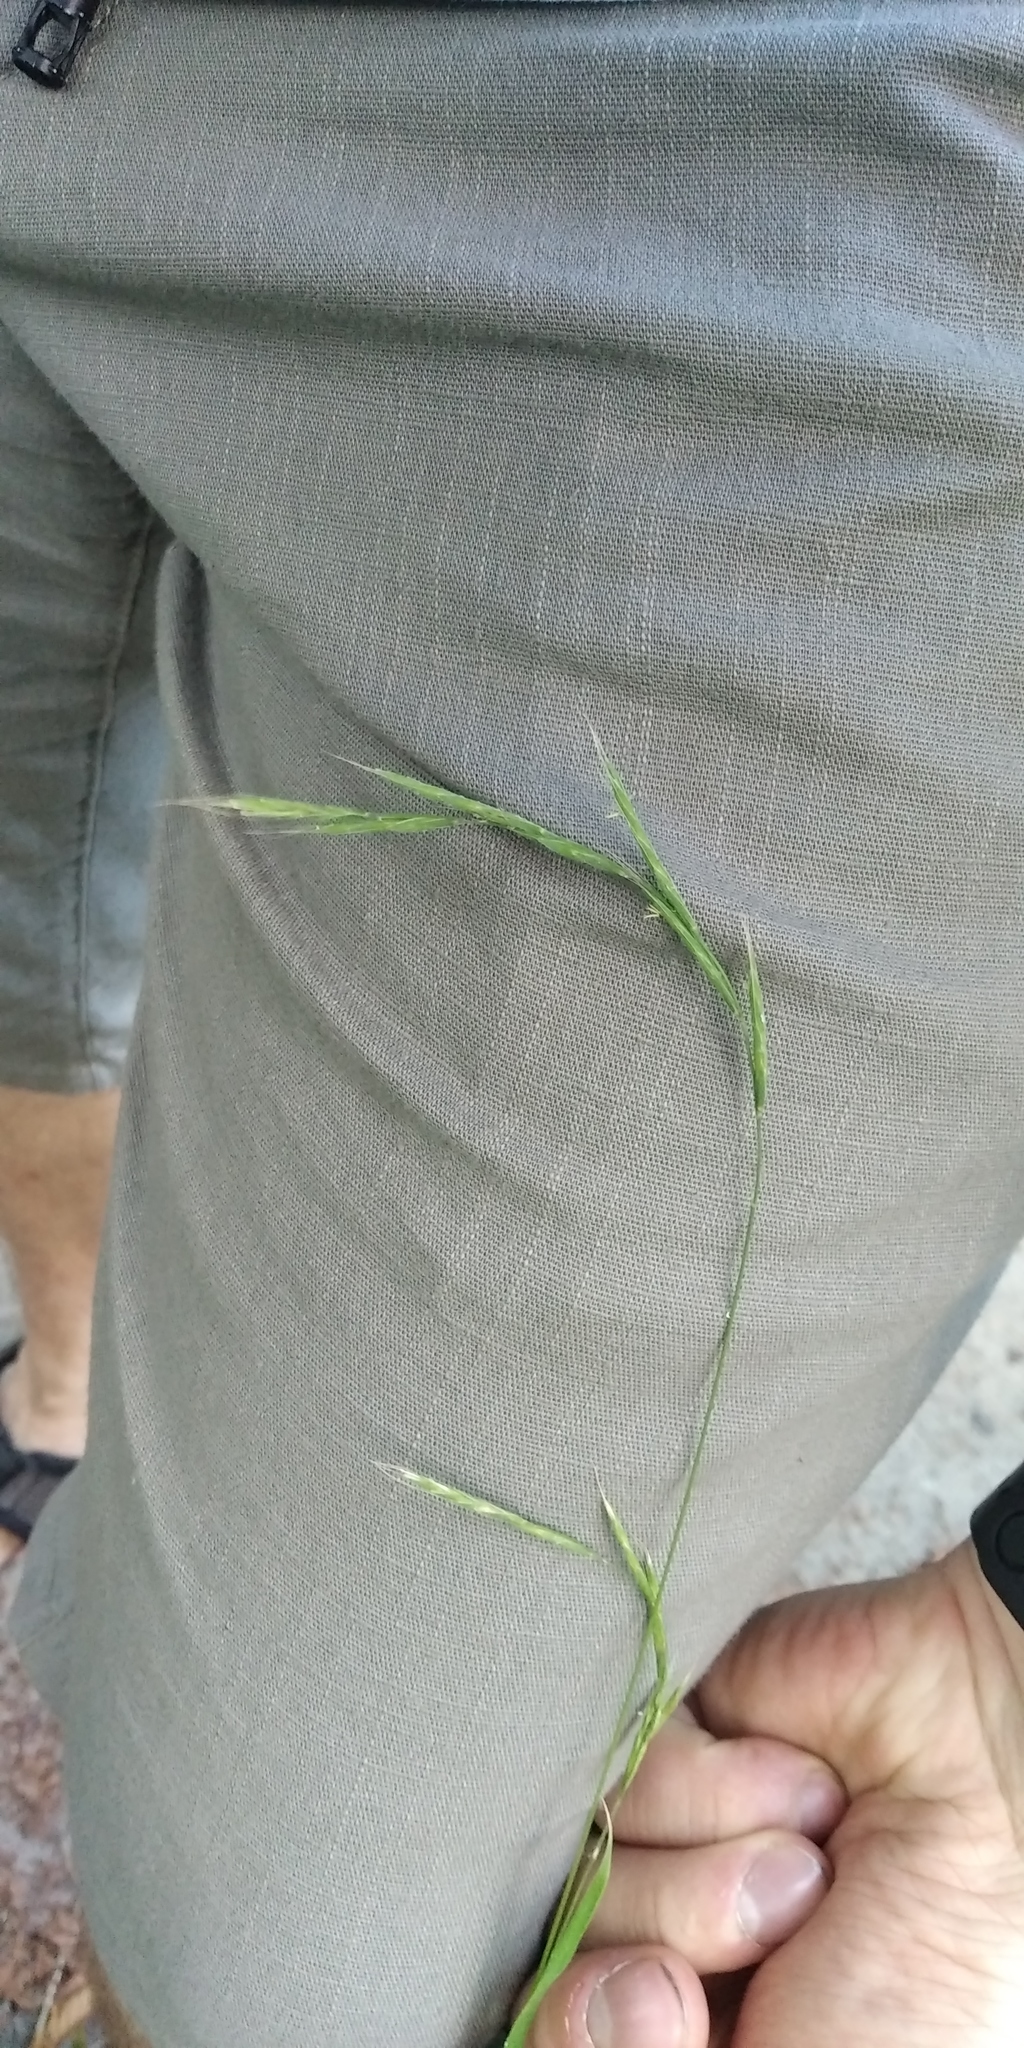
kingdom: Plantae
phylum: Tracheophyta
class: Liliopsida
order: Poales
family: Poaceae
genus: Brachypodium
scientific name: Brachypodium sylvaticum
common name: False-brome
